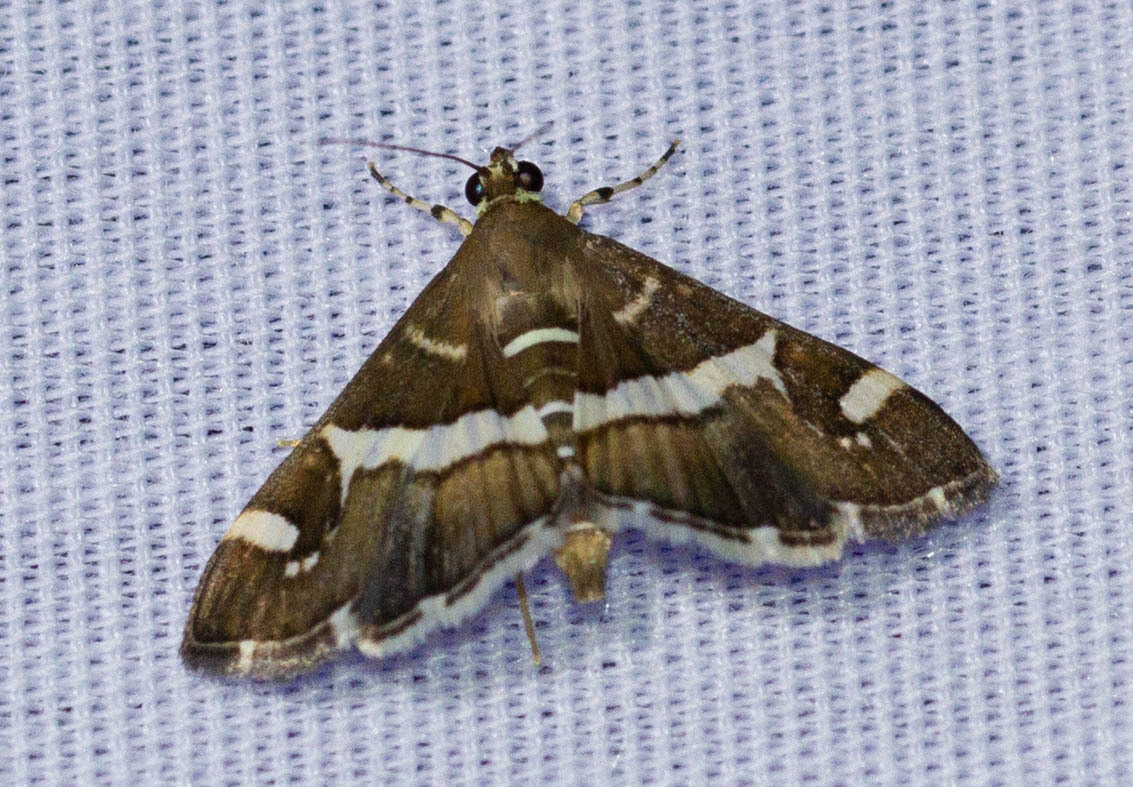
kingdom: Animalia
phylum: Arthropoda
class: Insecta
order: Lepidoptera
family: Crambidae
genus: Spoladea
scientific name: Spoladea recurvalis
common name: Beet webworm moth
